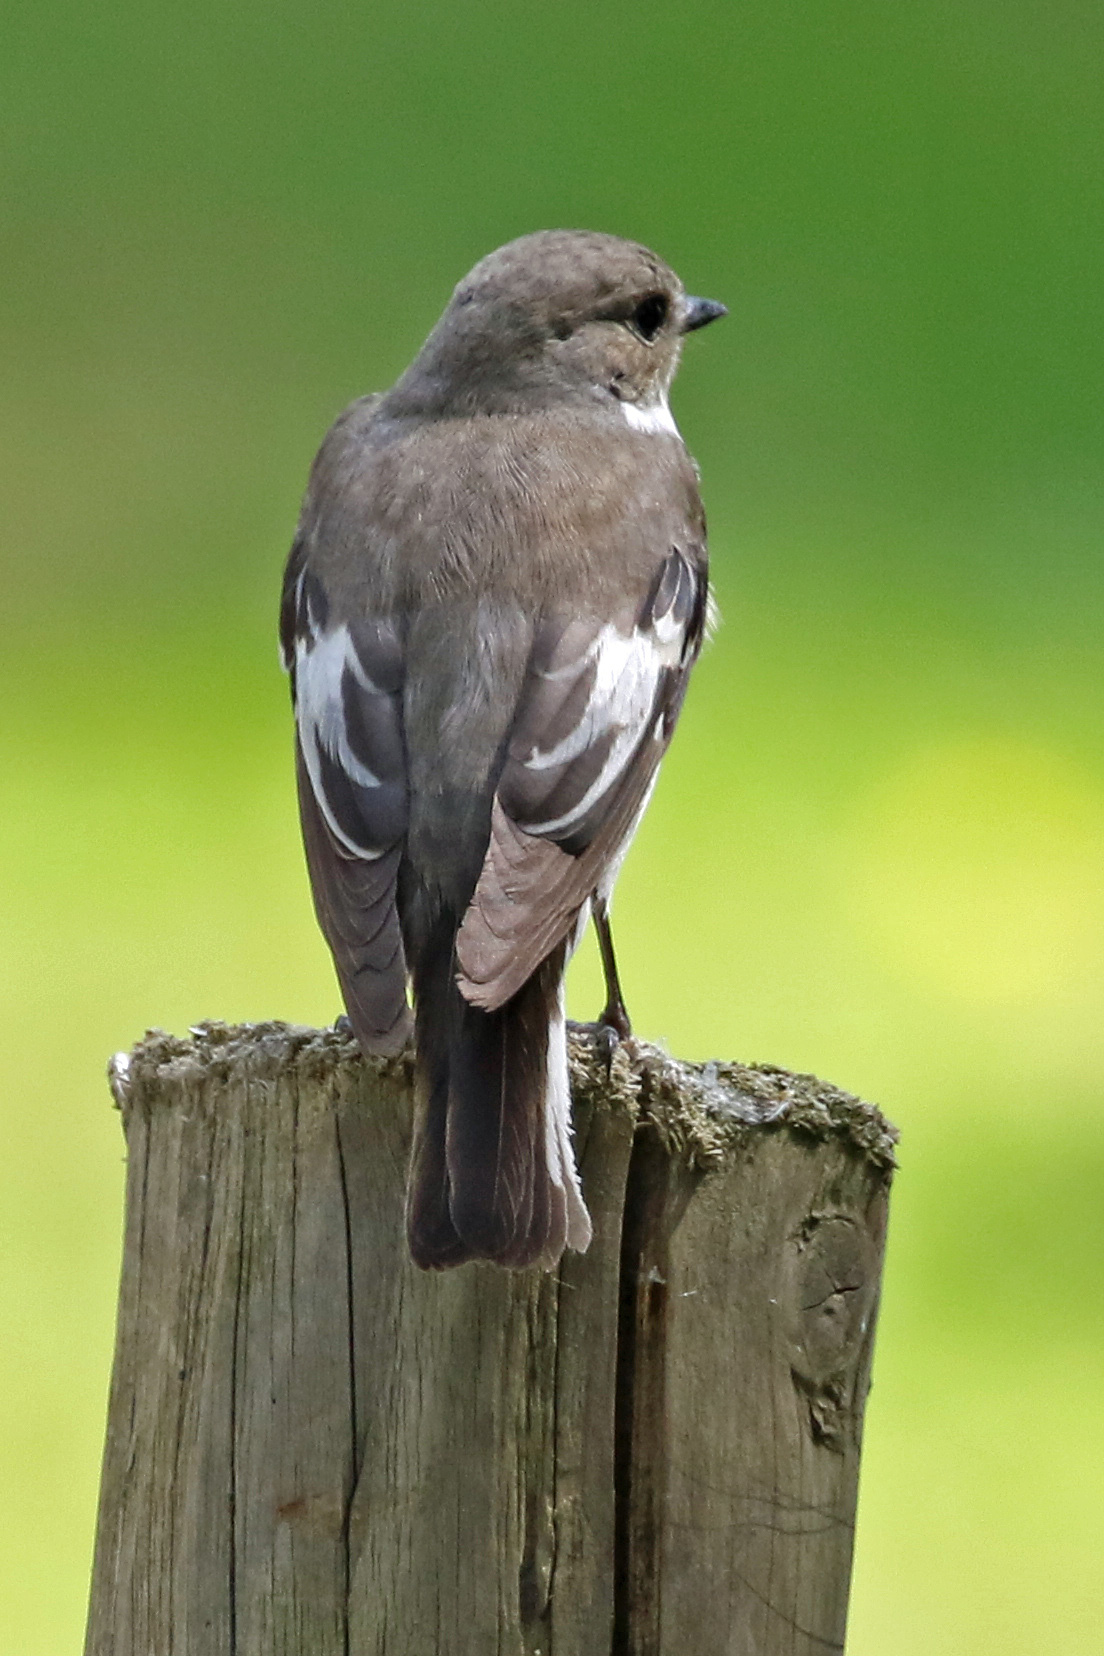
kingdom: Animalia
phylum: Chordata
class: Aves
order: Passeriformes
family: Muscicapidae
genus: Ficedula
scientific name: Ficedula hypoleuca
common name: European pied flycatcher
